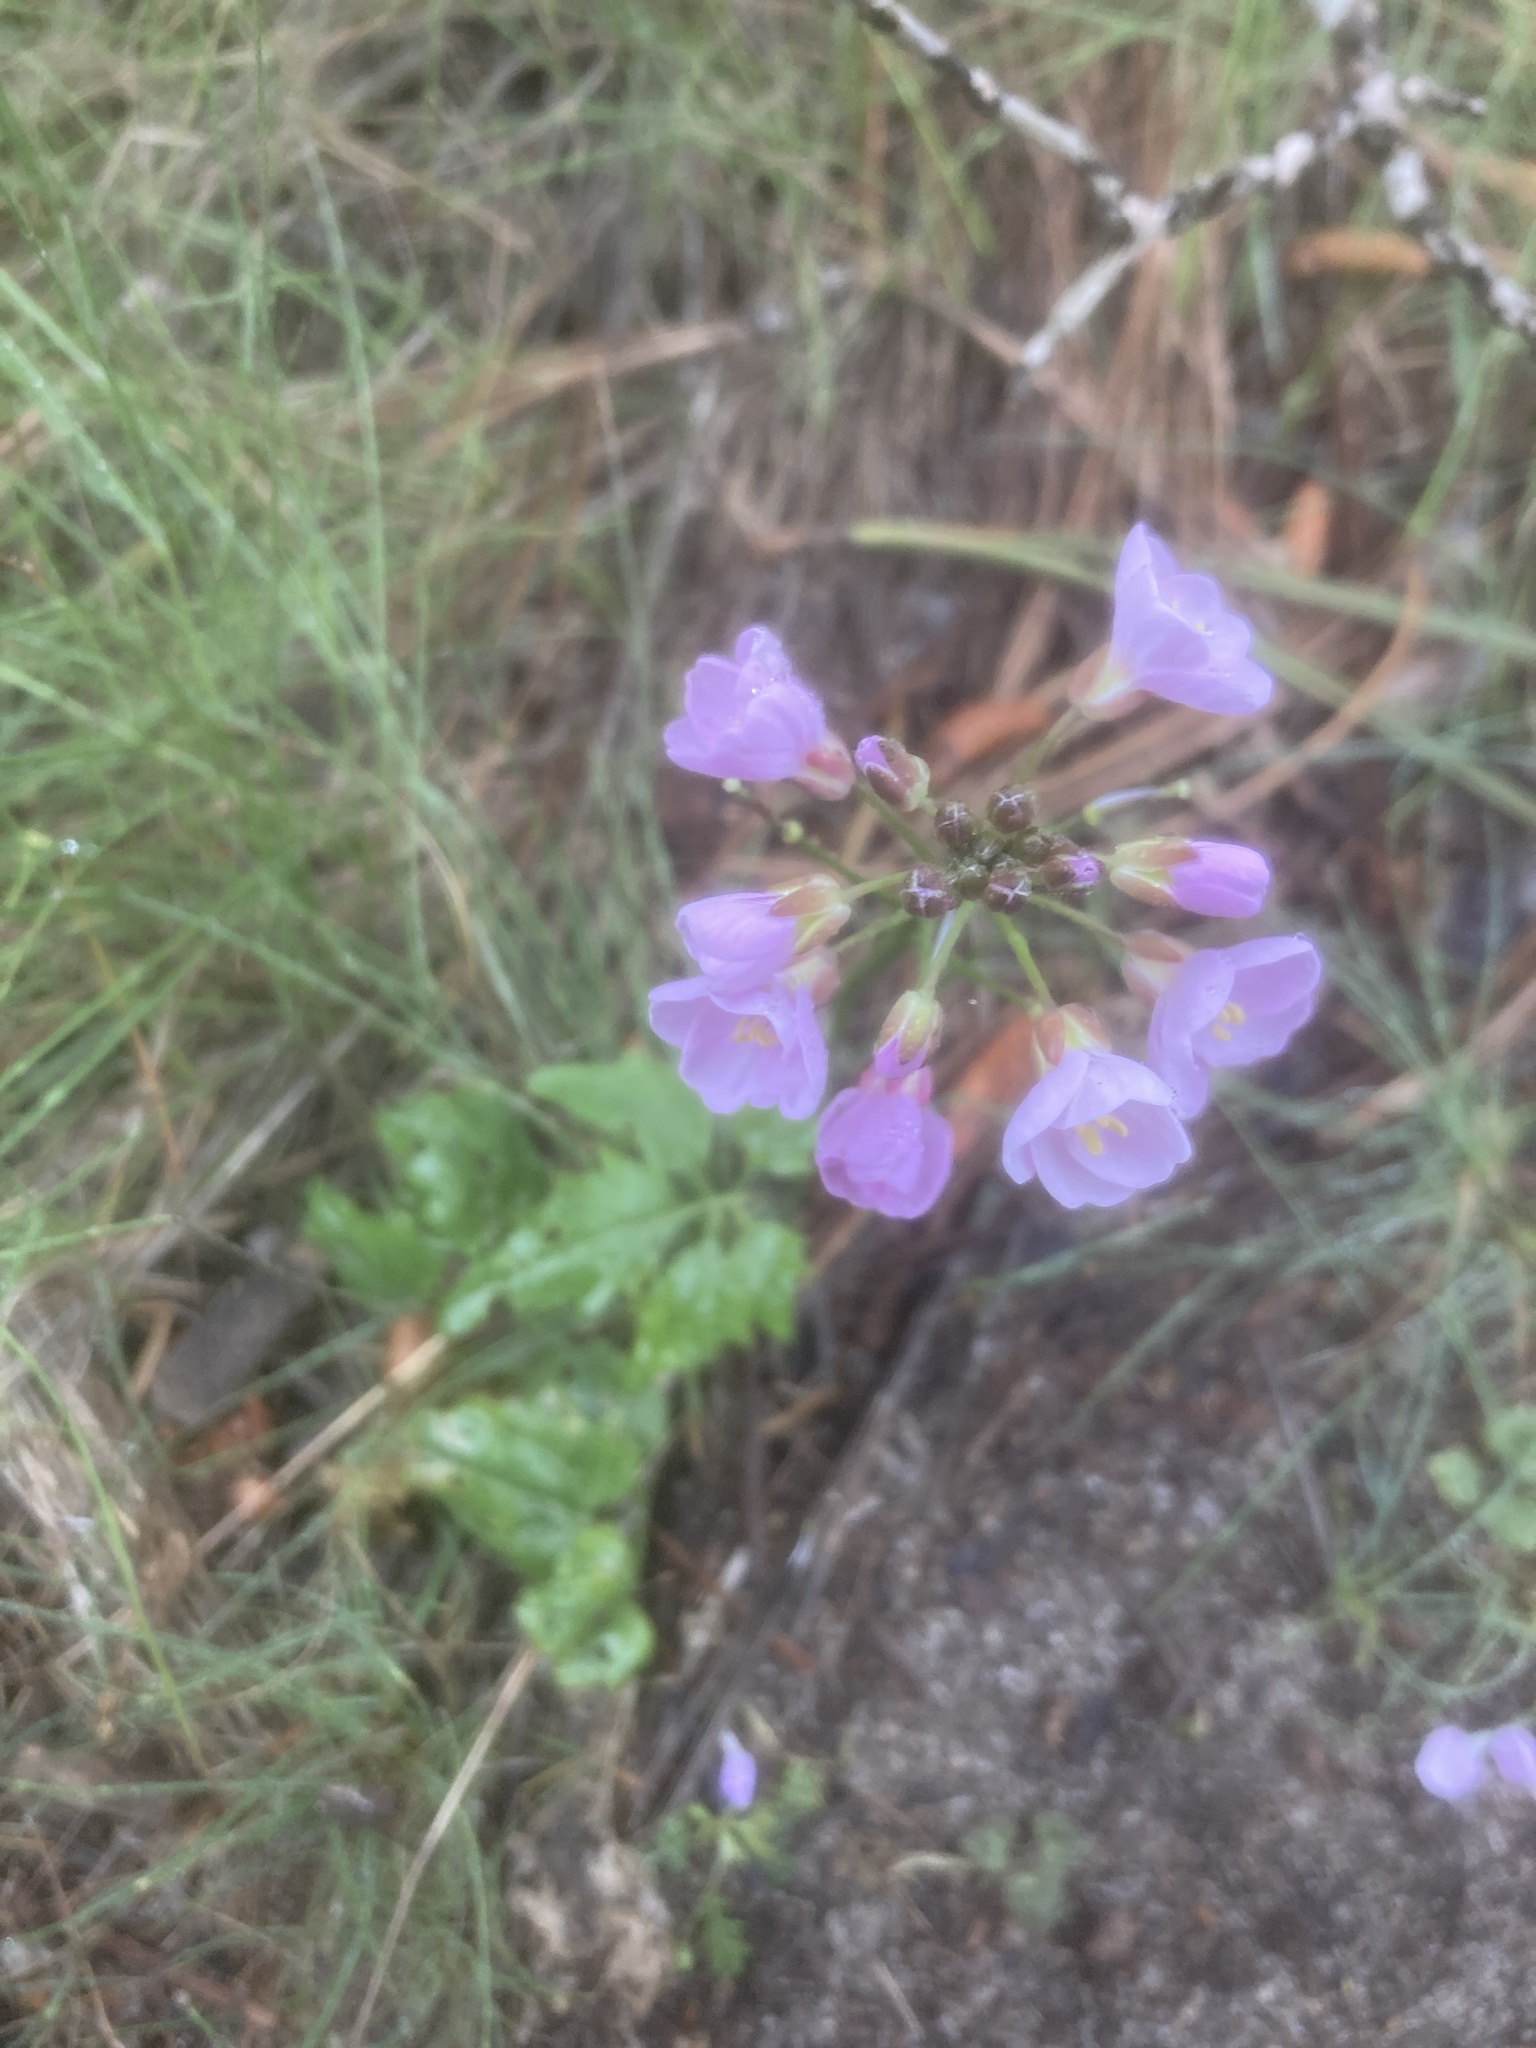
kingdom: Plantae
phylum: Tracheophyta
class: Magnoliopsida
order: Brassicales
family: Brassicaceae
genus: Cardamine
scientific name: Cardamine californica
